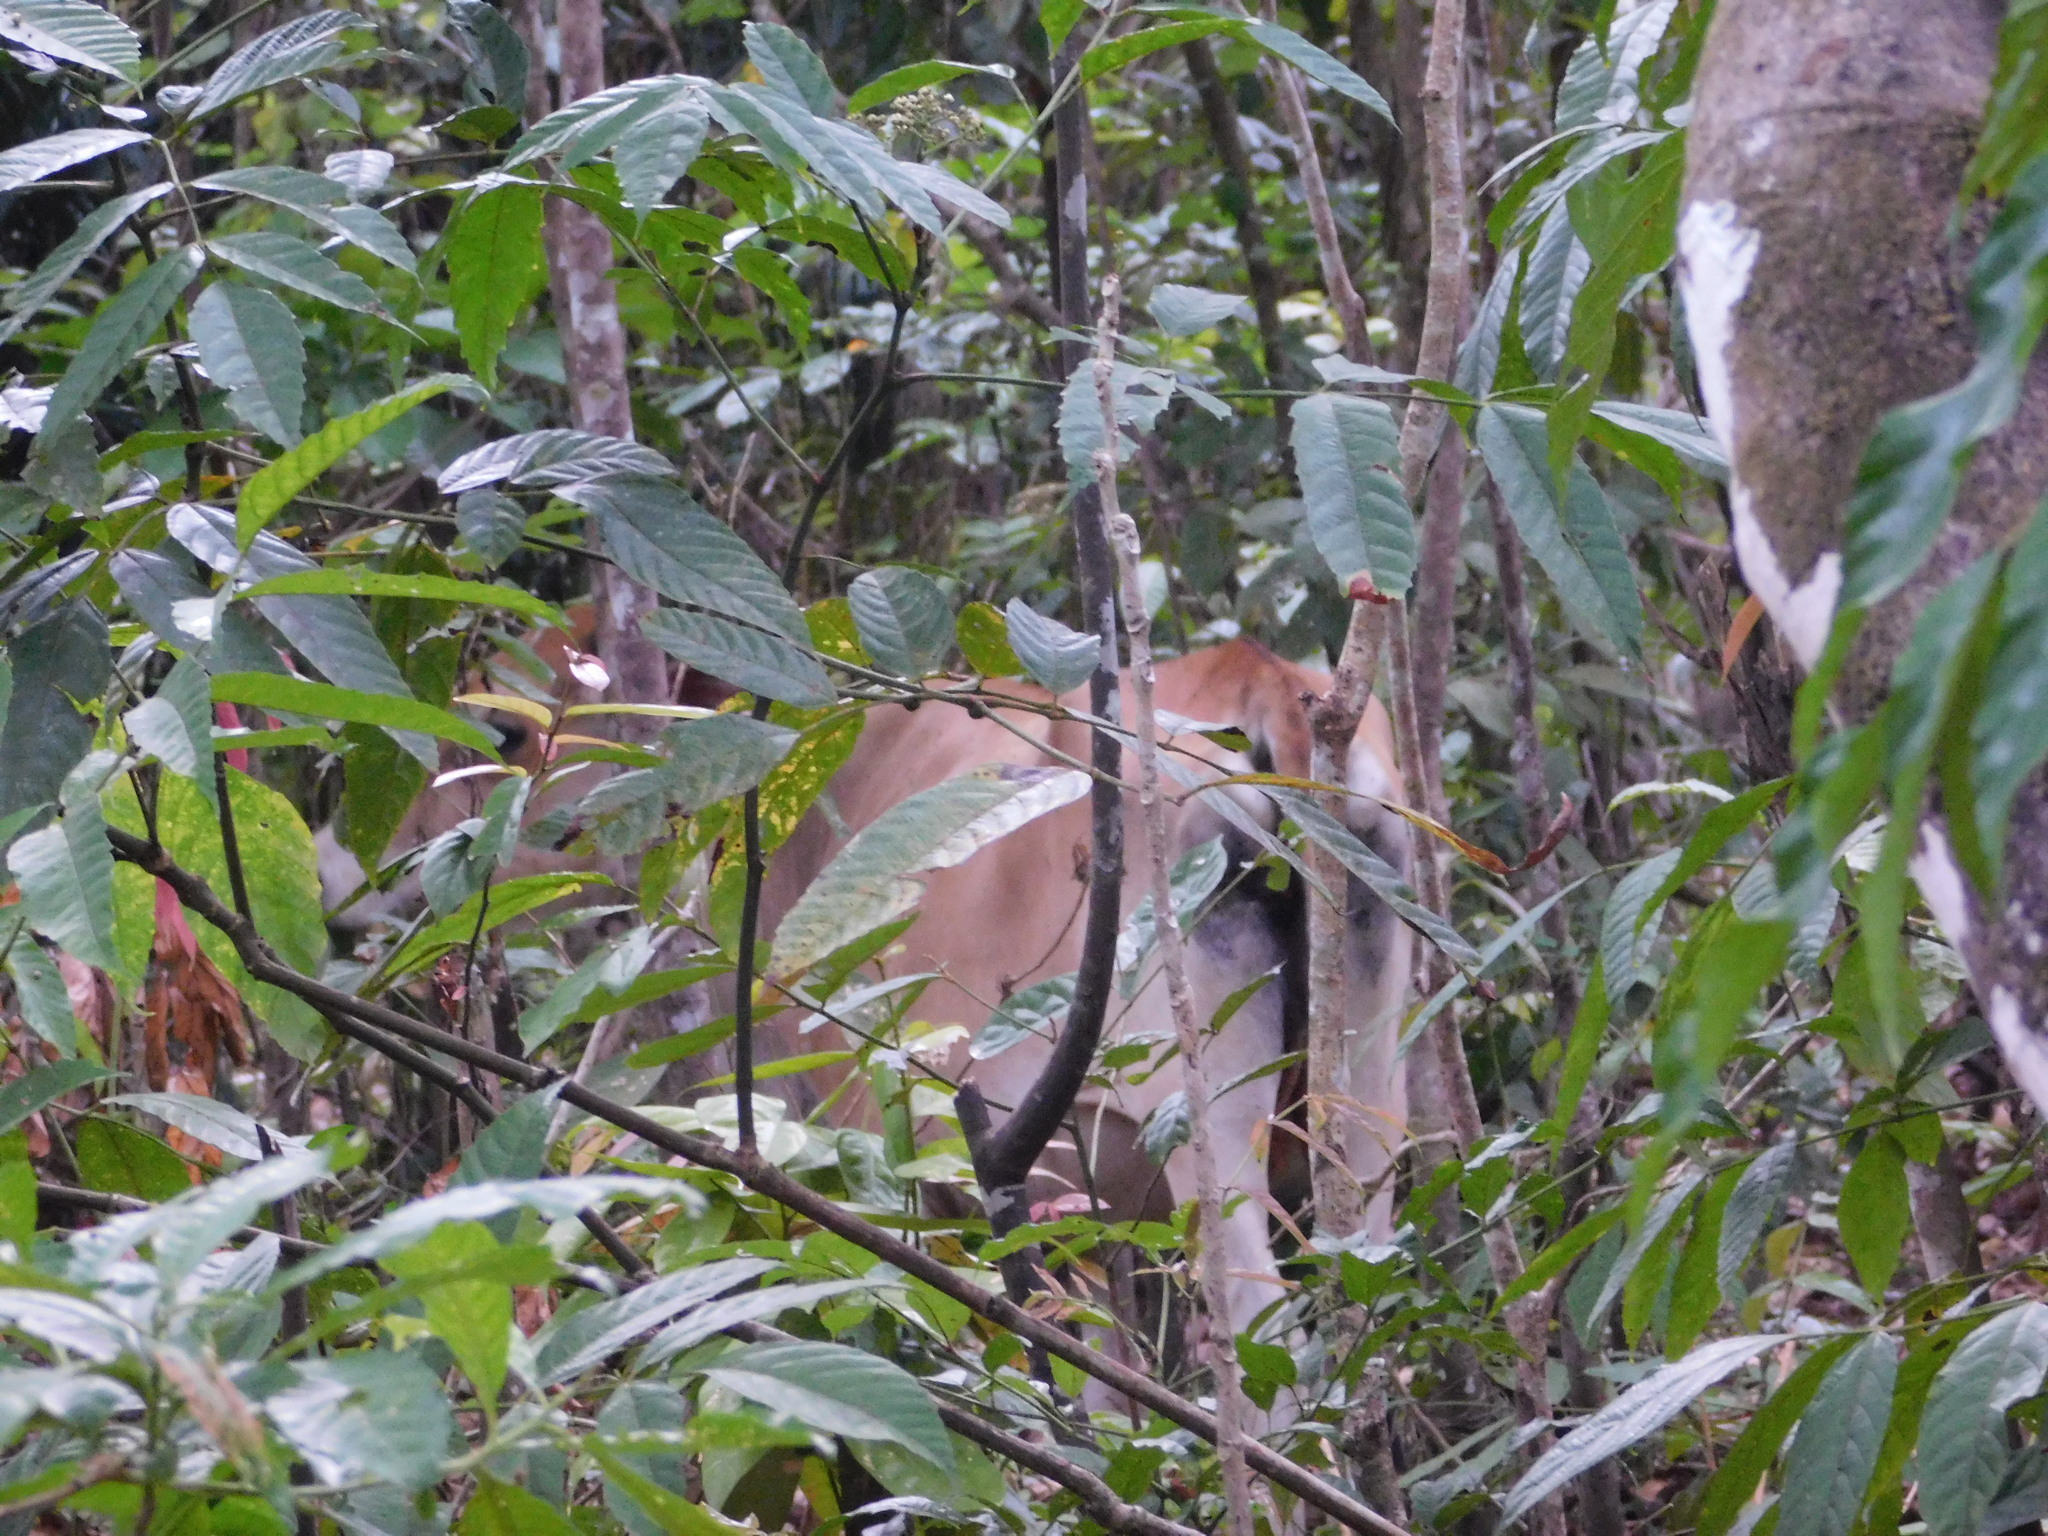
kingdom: Animalia
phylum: Chordata
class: Mammalia
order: Artiodactyla
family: Bovidae
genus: Bos
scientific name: Bos taurus
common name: Domesticated cattle
